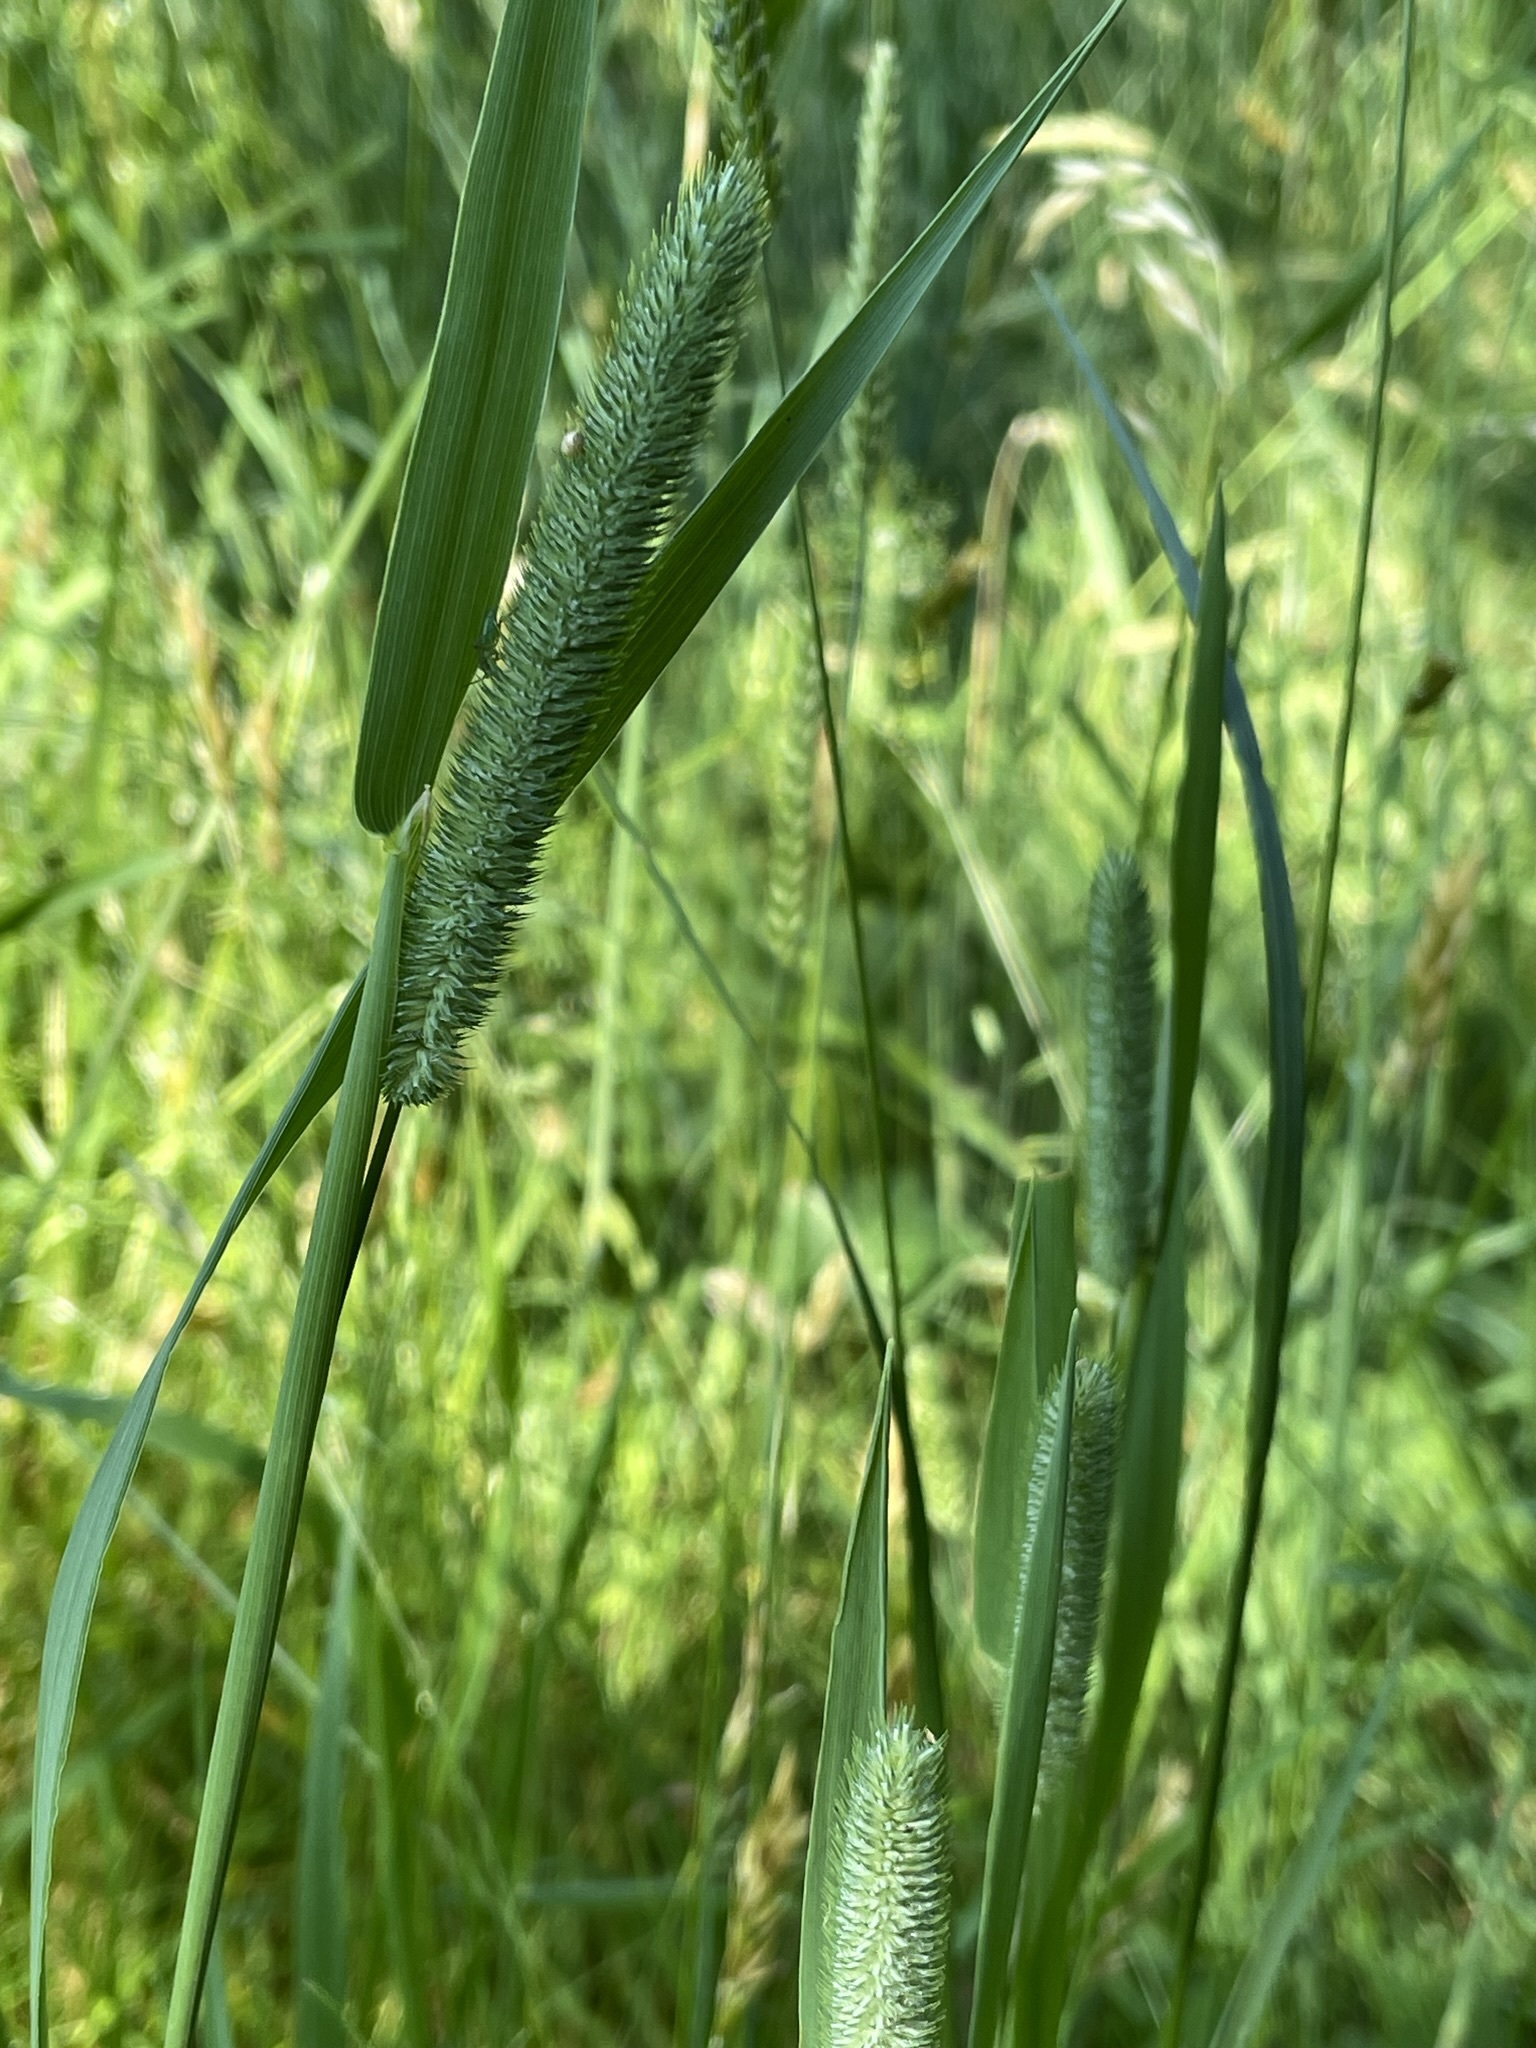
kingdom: Plantae
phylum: Tracheophyta
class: Liliopsida
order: Poales
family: Poaceae
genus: Phleum
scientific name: Phleum pratense
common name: Timothy grass
